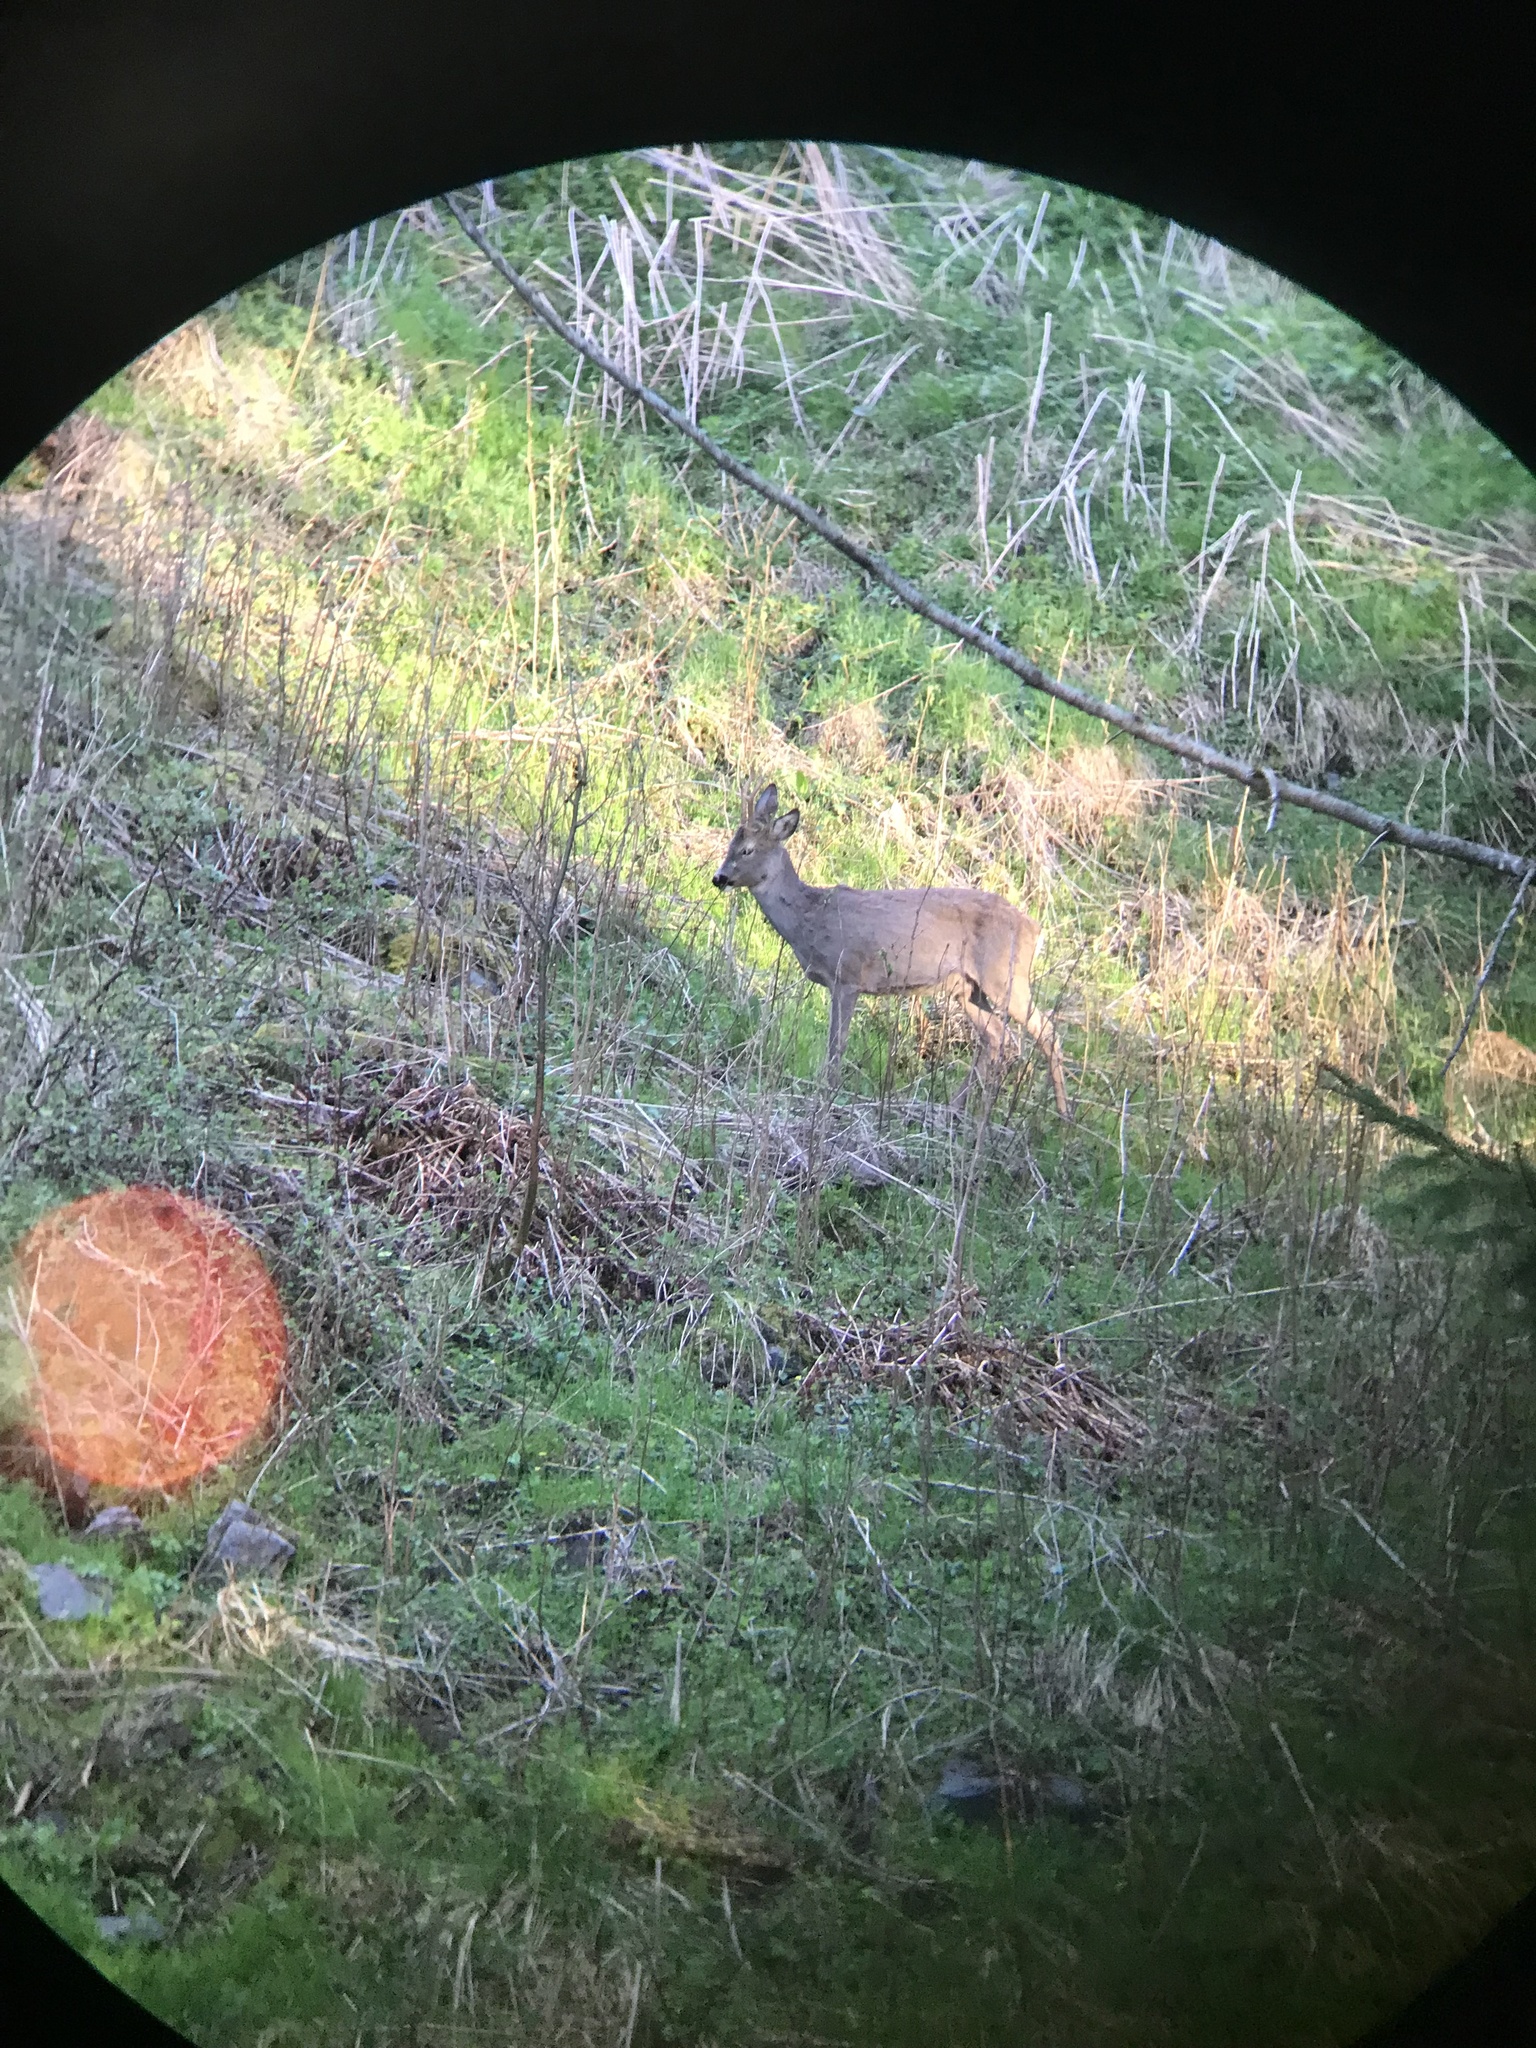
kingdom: Animalia
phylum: Chordata
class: Mammalia
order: Artiodactyla
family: Cervidae
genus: Capreolus
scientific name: Capreolus capreolus
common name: Western roe deer
